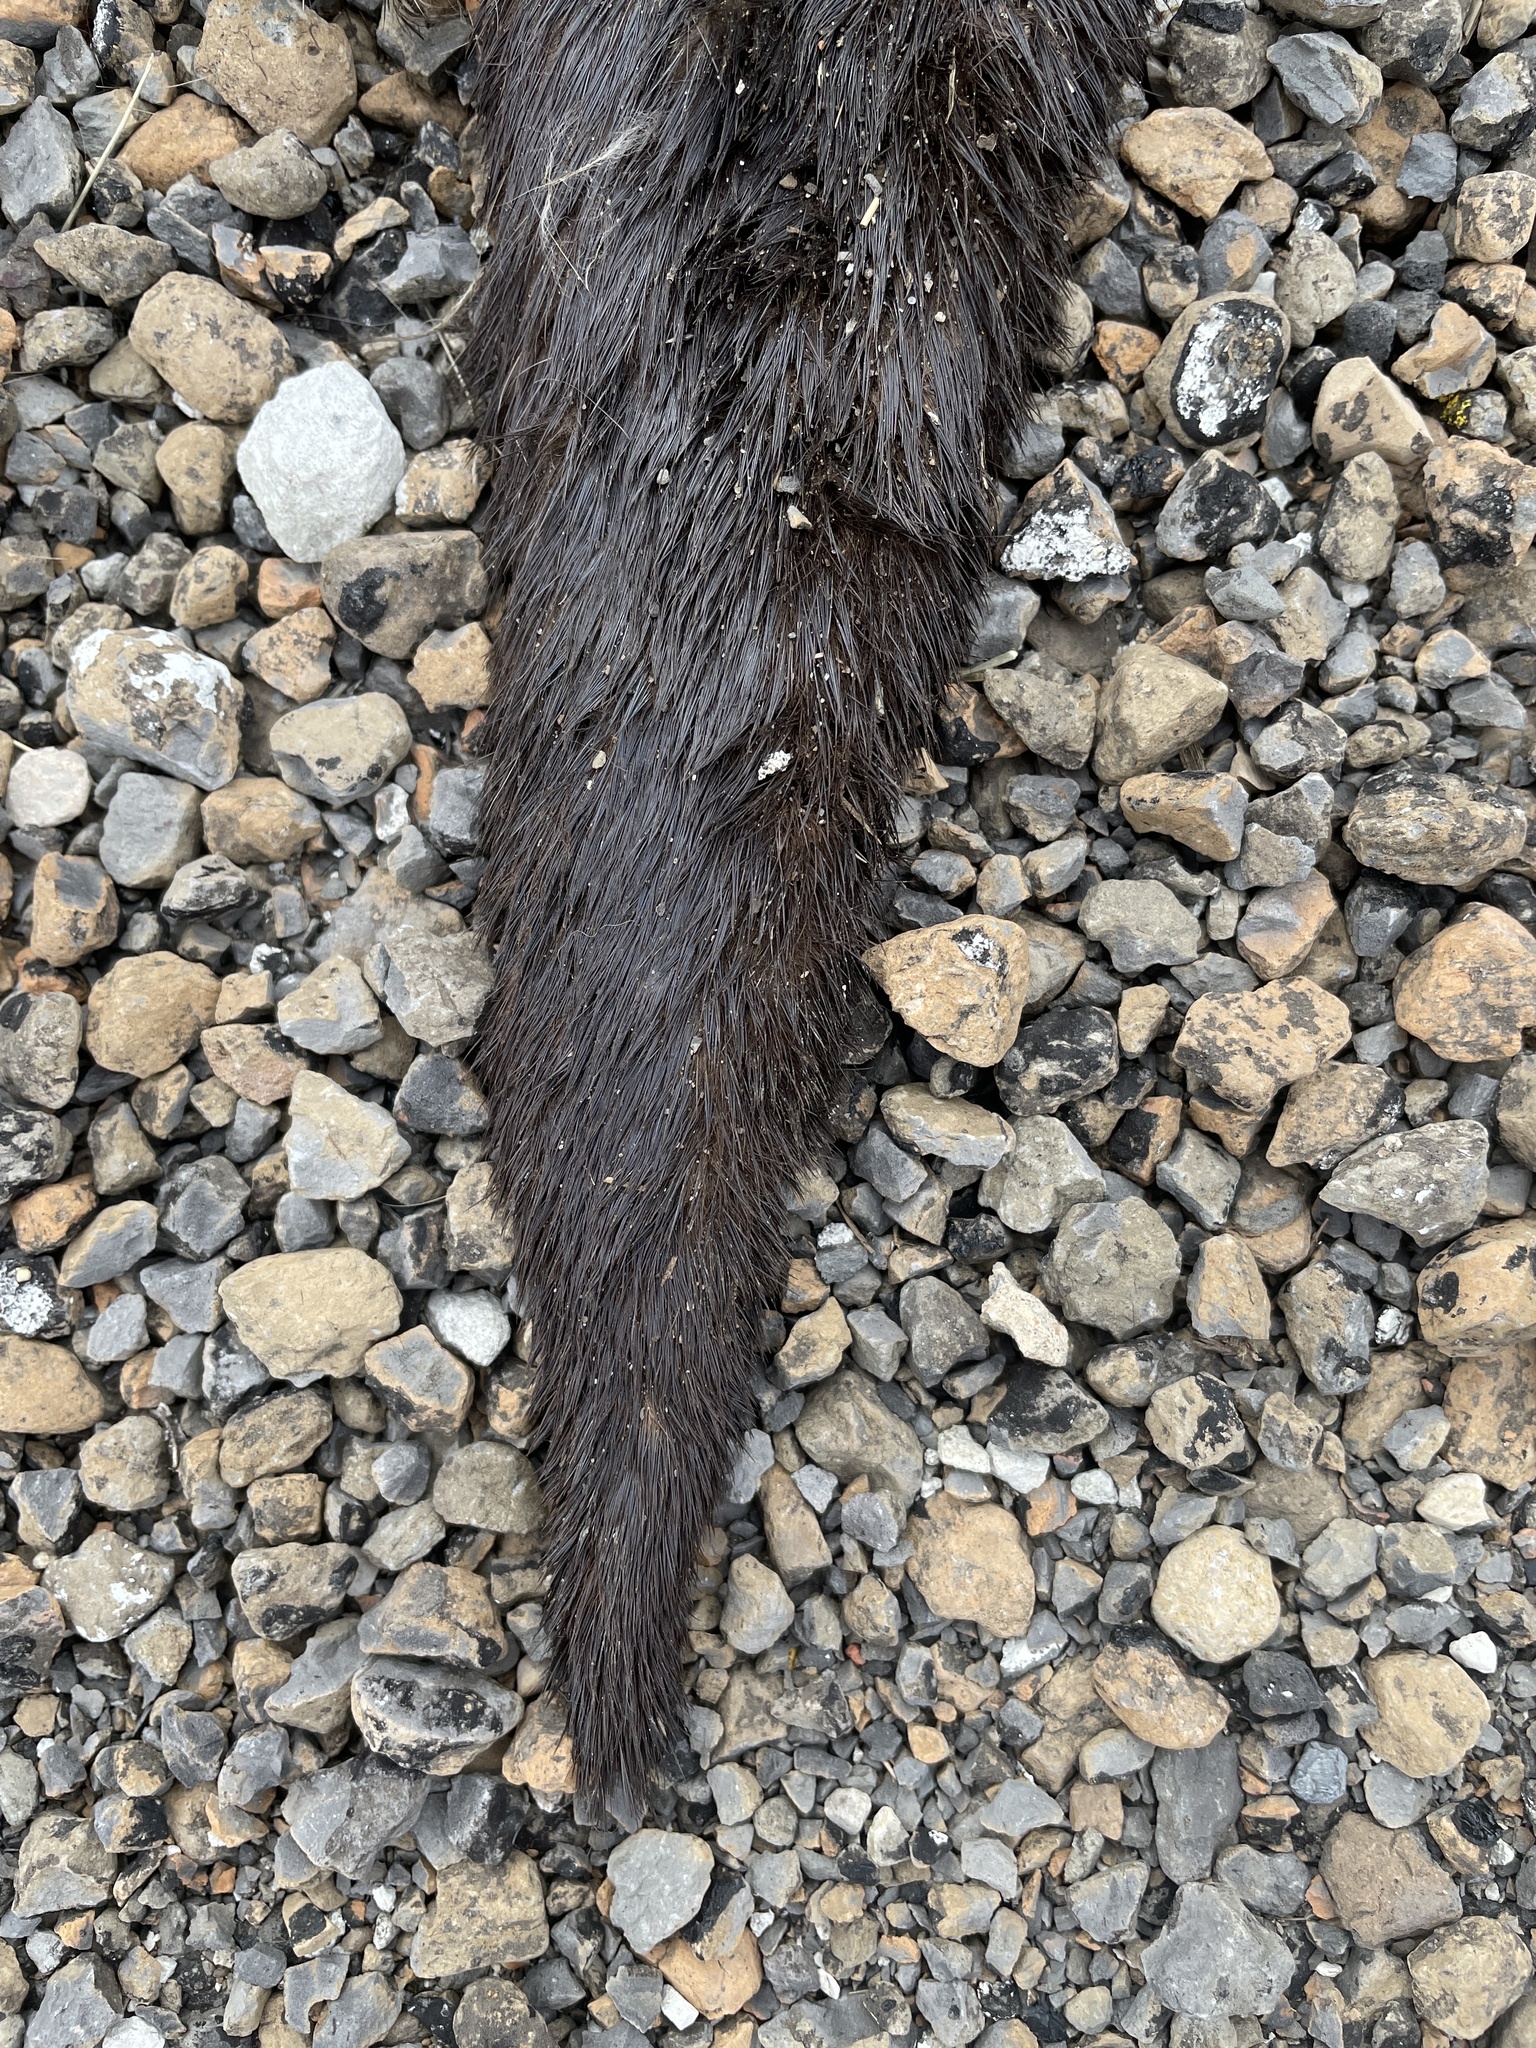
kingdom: Animalia
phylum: Chordata
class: Mammalia
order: Carnivora
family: Mustelidae
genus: Lontra
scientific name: Lontra canadensis
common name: North american river otter
